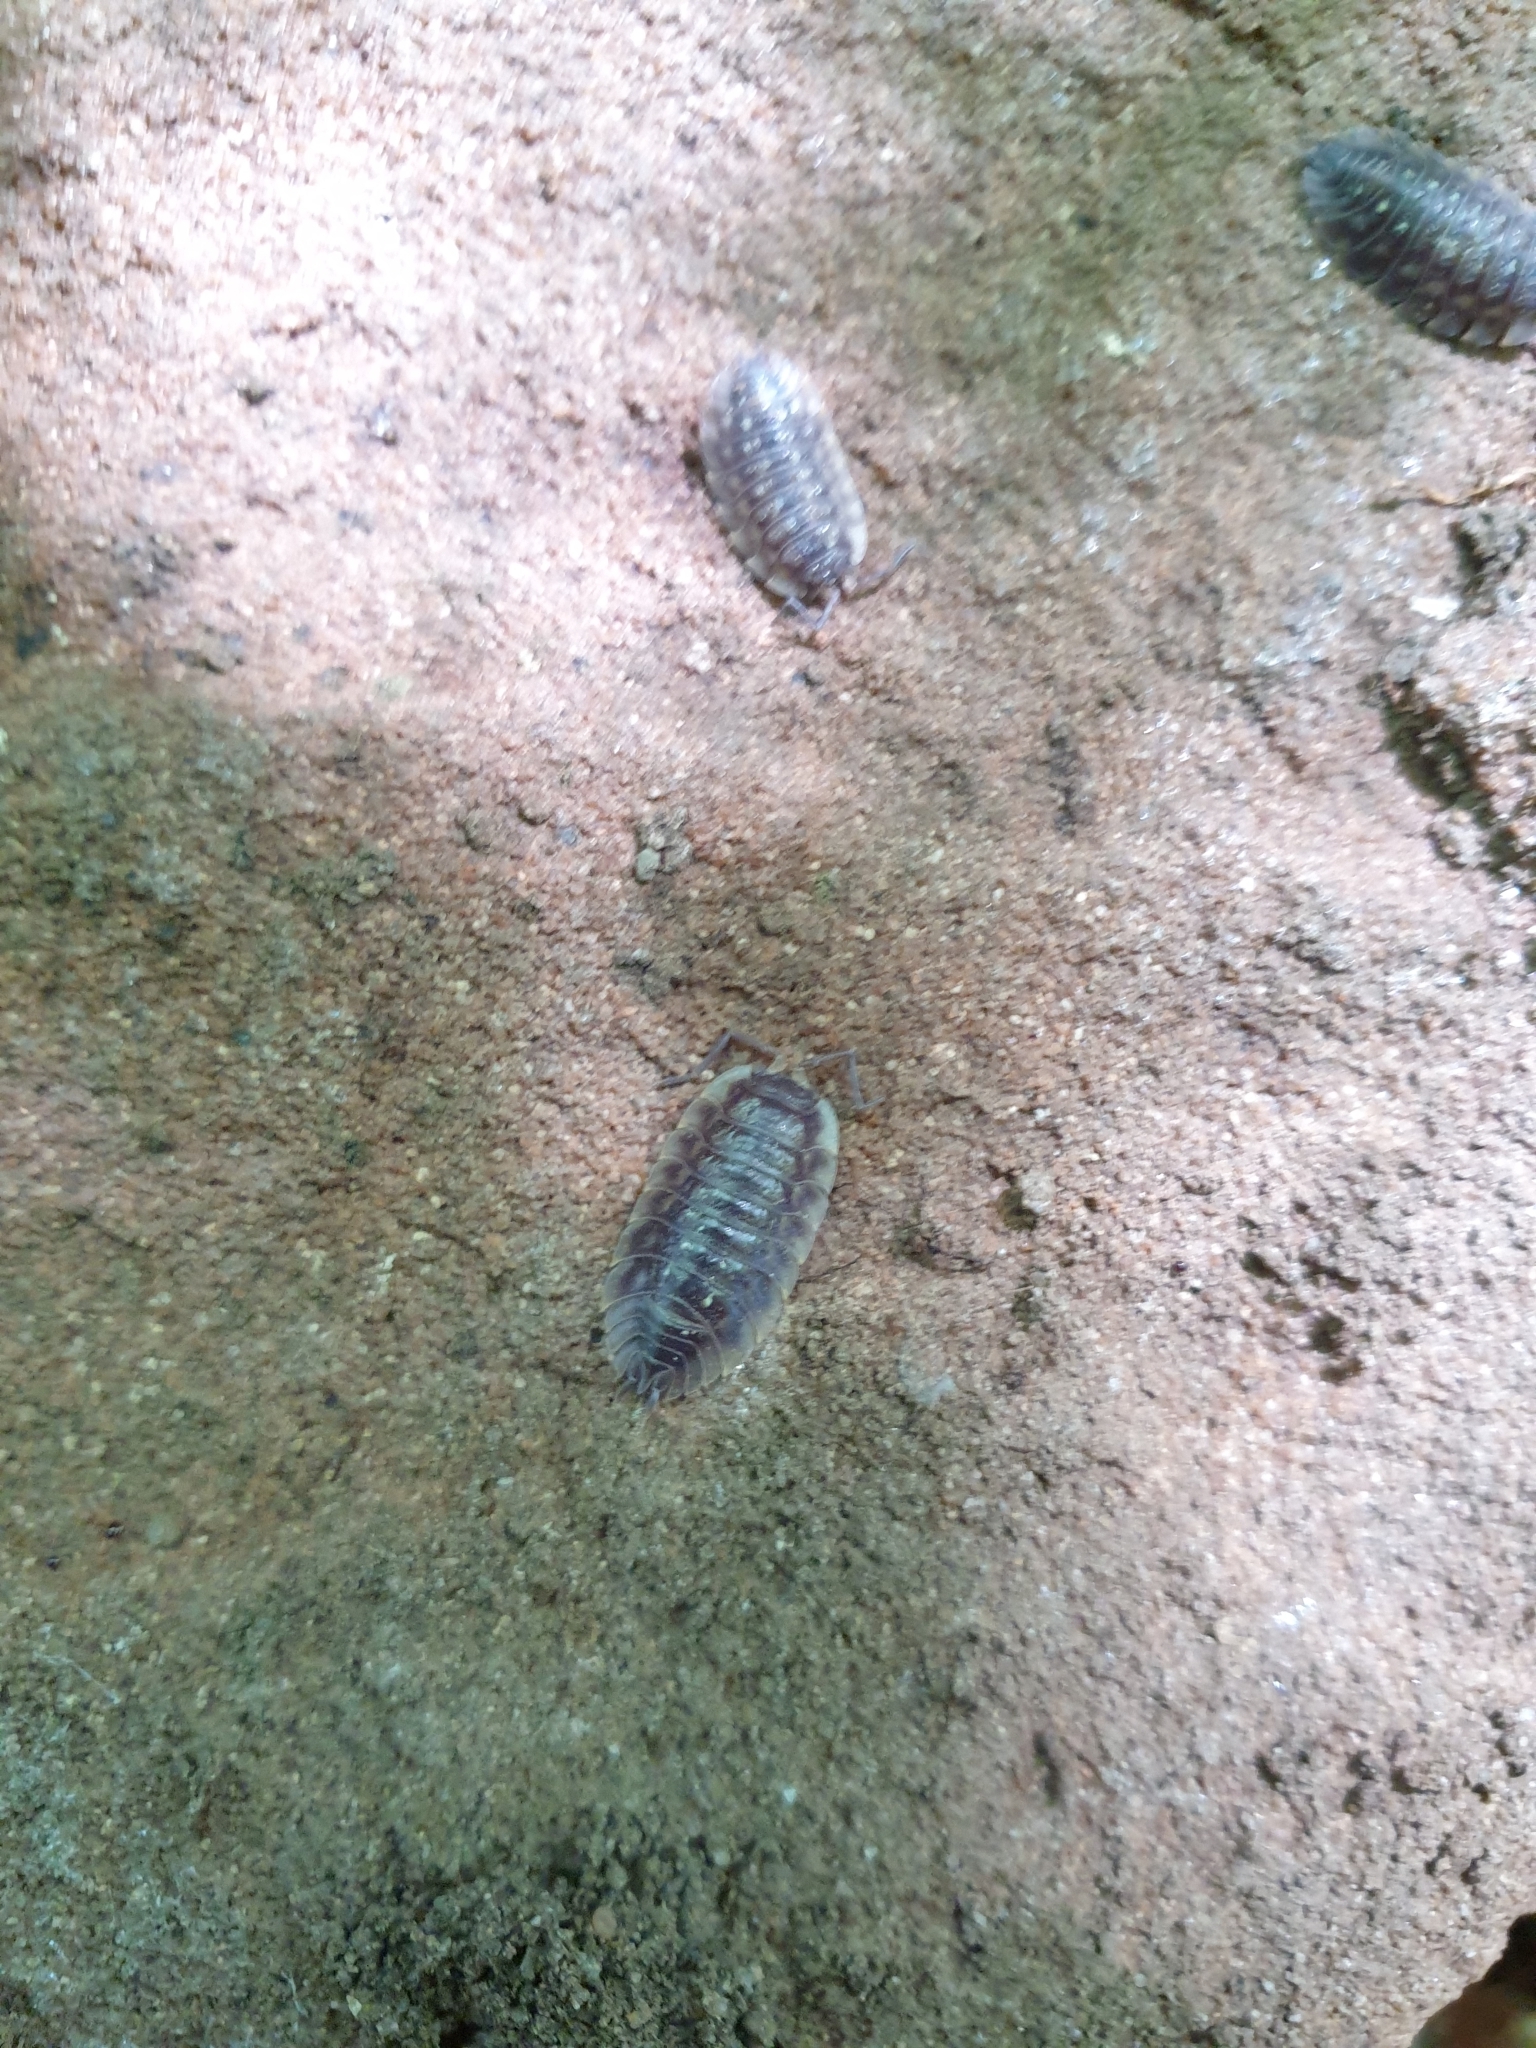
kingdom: Animalia
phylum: Arthropoda
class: Malacostraca
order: Isopoda
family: Oniscidae
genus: Oniscus
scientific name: Oniscus asellus
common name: Common shiny woodlouse
